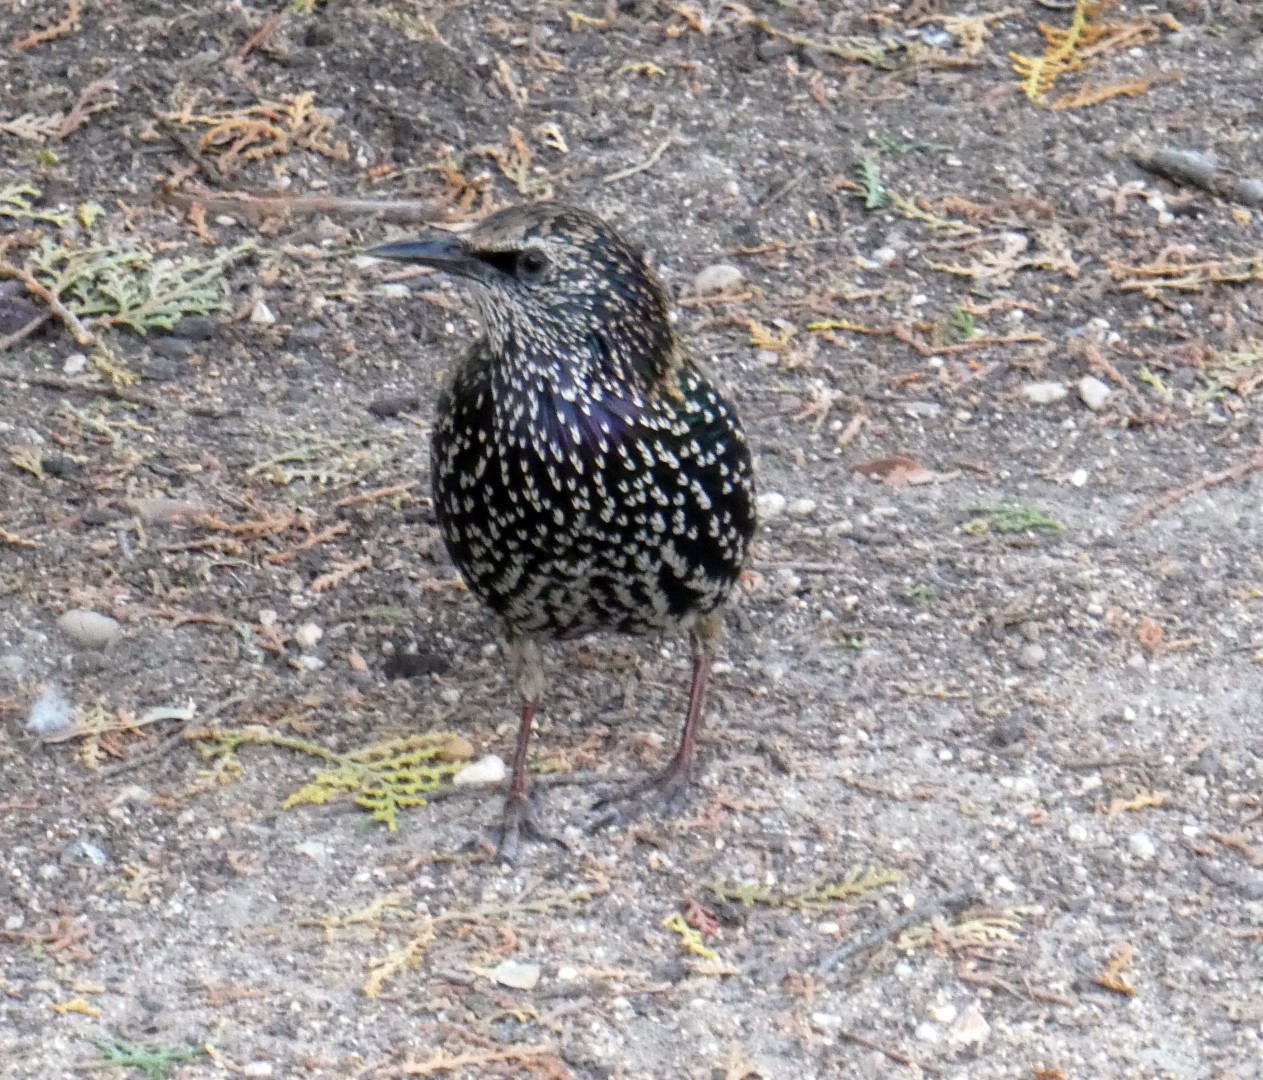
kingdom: Animalia
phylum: Chordata
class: Aves
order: Passeriformes
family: Sturnidae
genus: Sturnus
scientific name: Sturnus vulgaris
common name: Common starling
